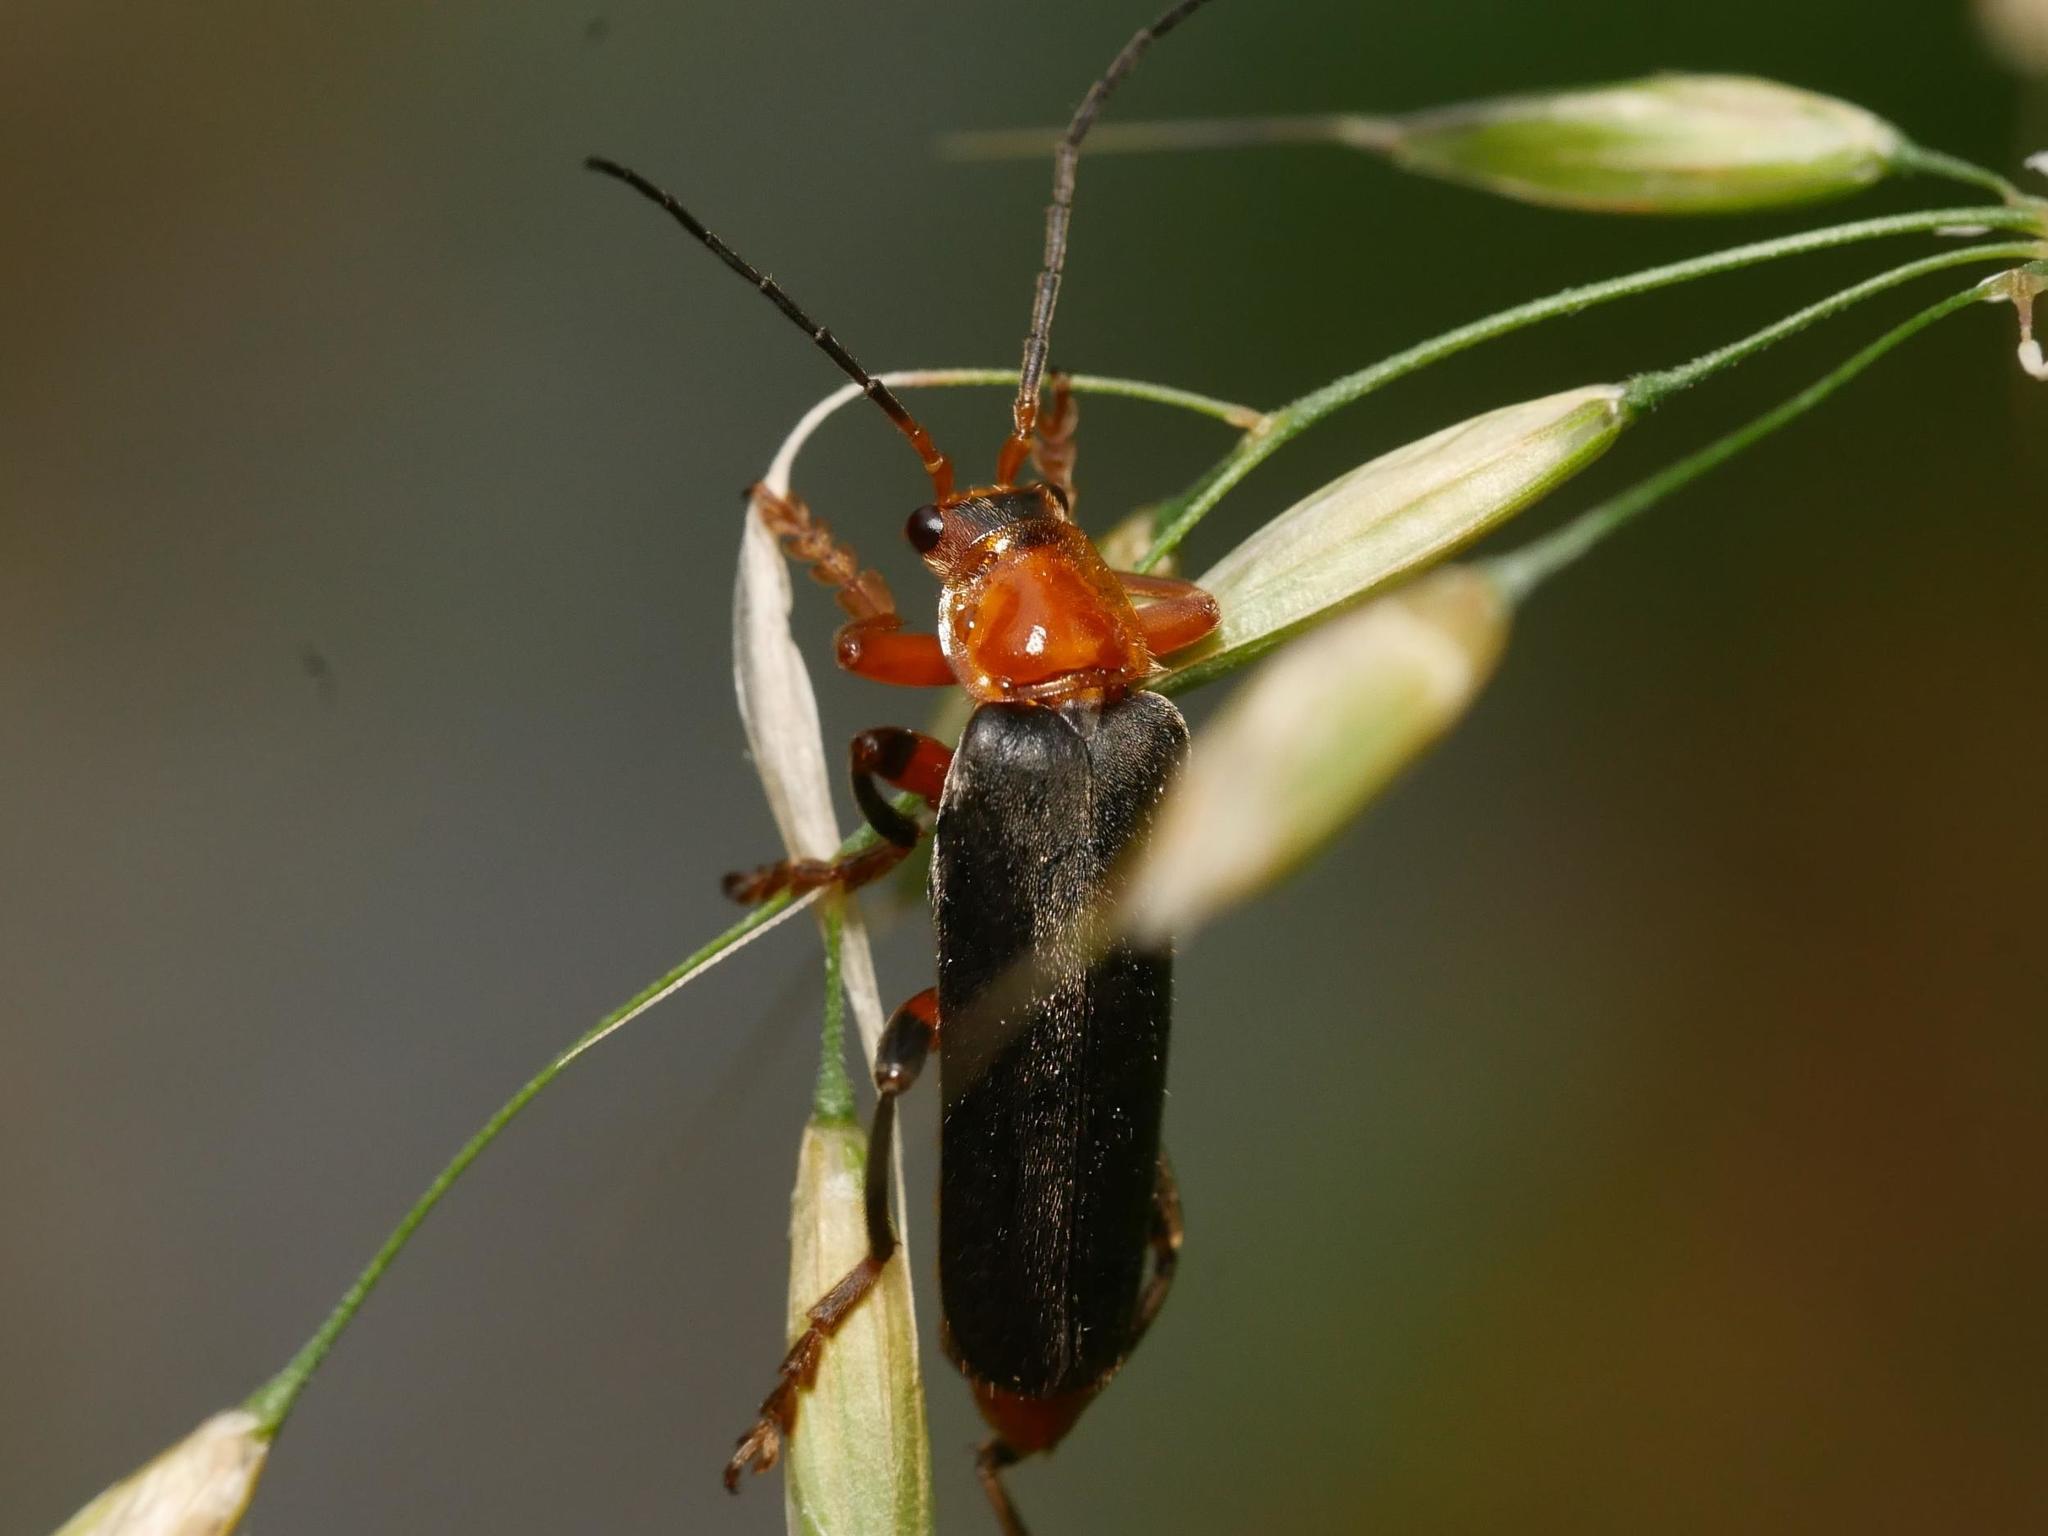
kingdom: Animalia
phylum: Arthropoda
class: Insecta
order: Coleoptera
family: Cantharidae
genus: Cantharis
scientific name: Cantharis livida
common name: Livid soldier beetle
